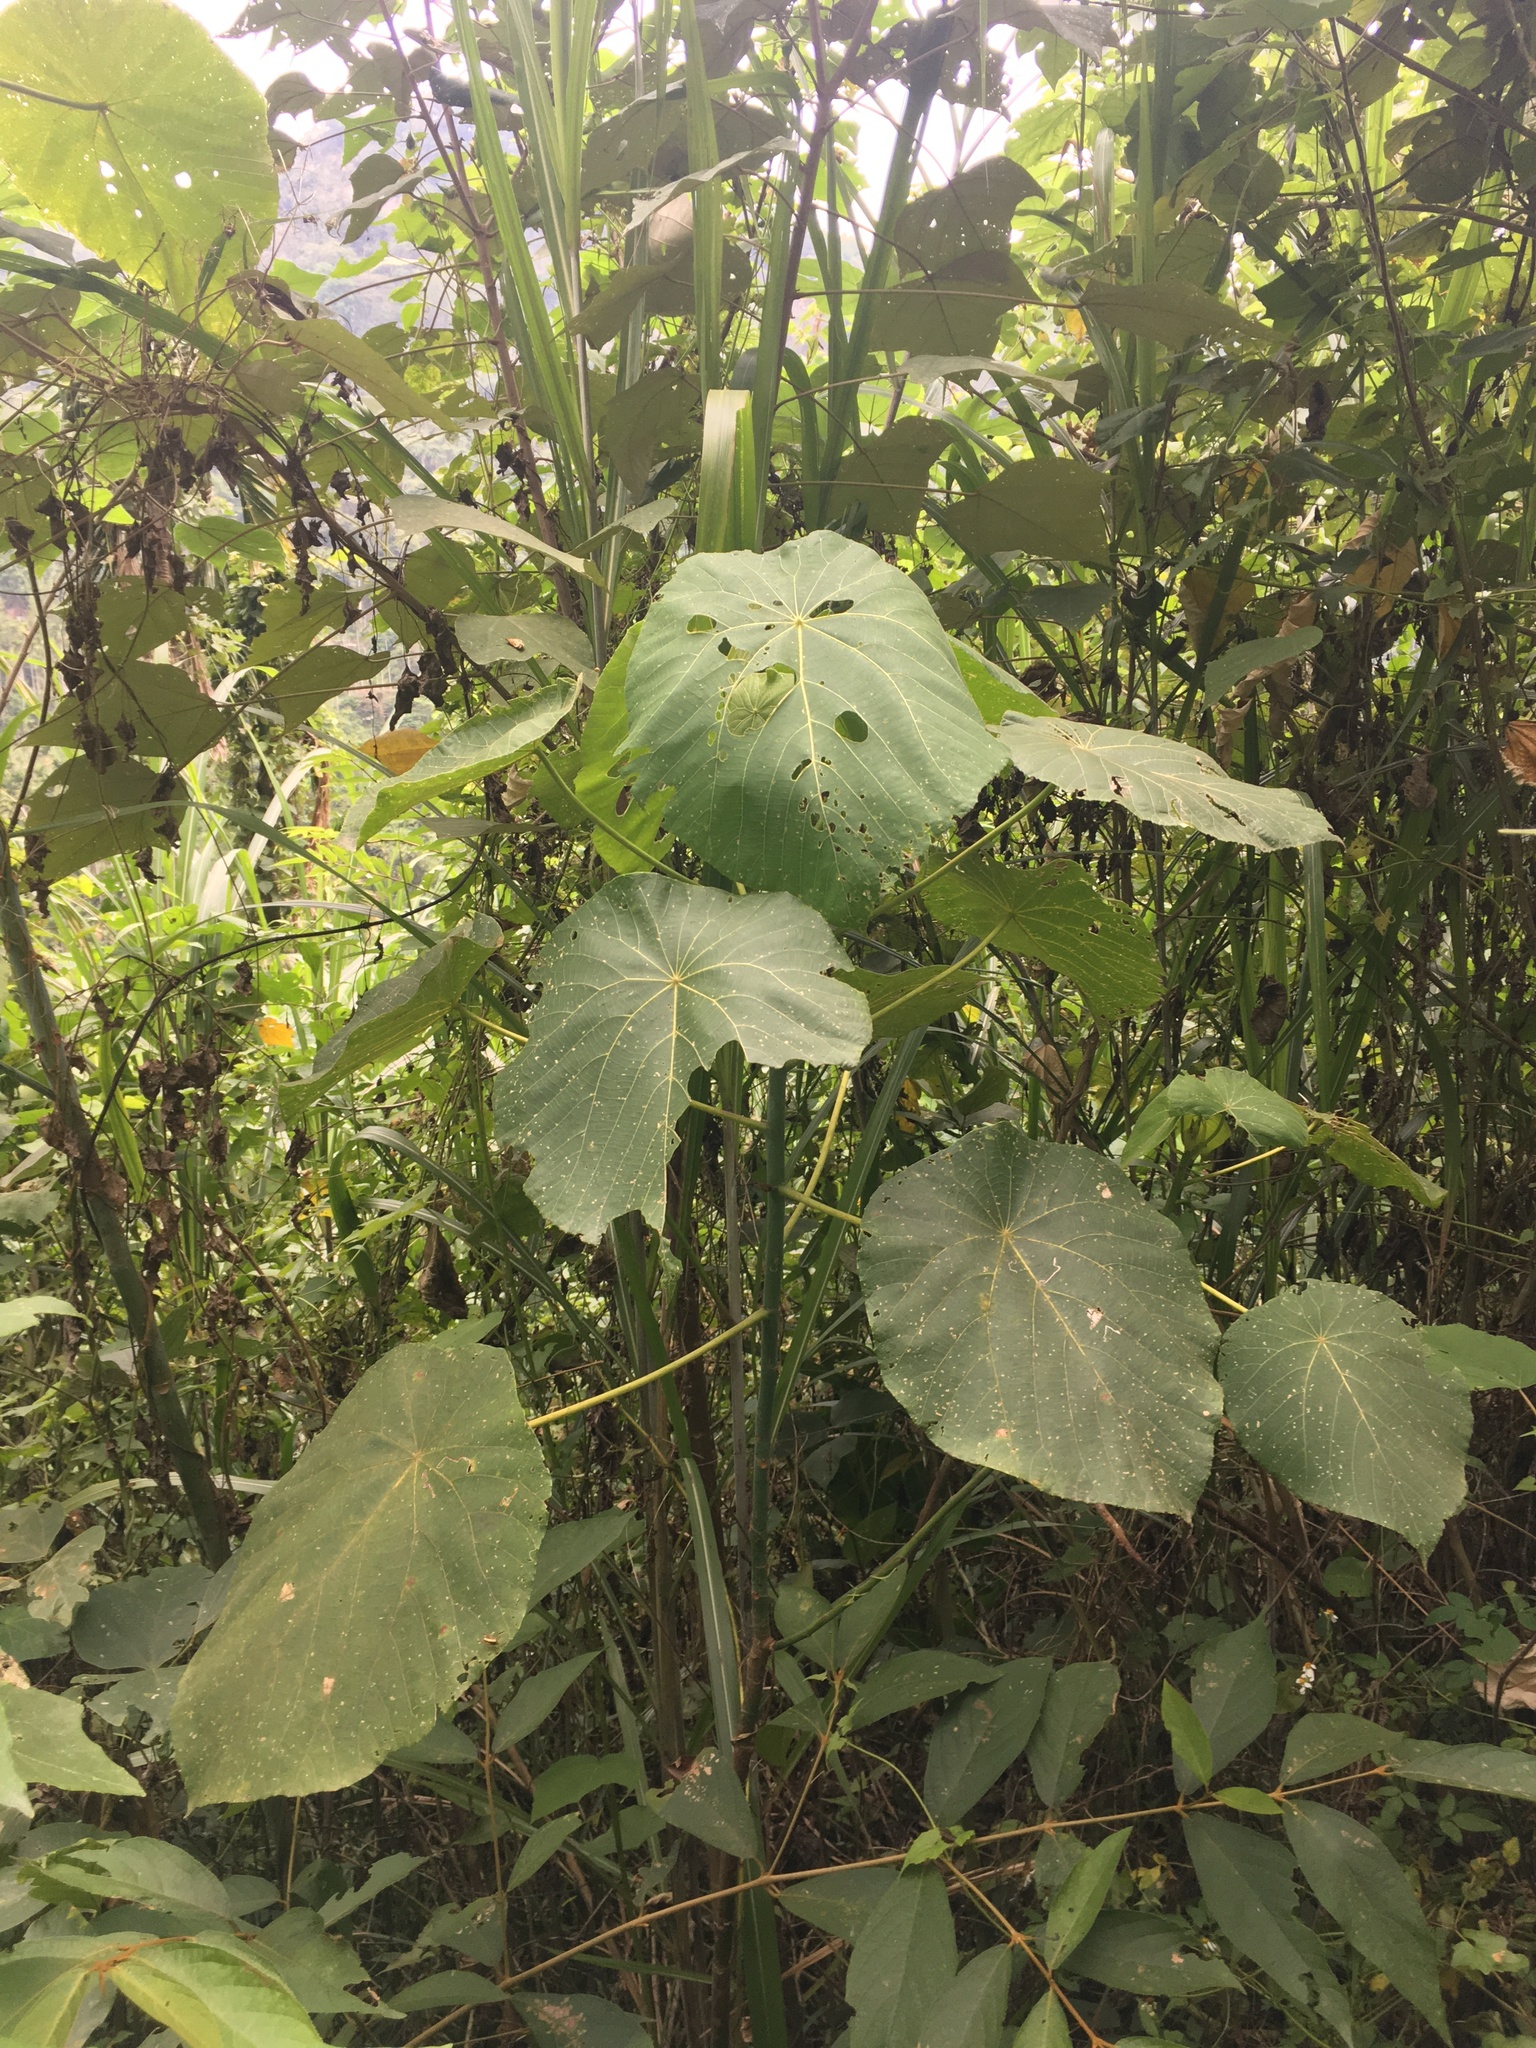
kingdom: Plantae
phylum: Tracheophyta
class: Magnoliopsida
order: Malpighiales
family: Euphorbiaceae
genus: Macaranga
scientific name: Macaranga tanarius
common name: Parasol leaf tree
